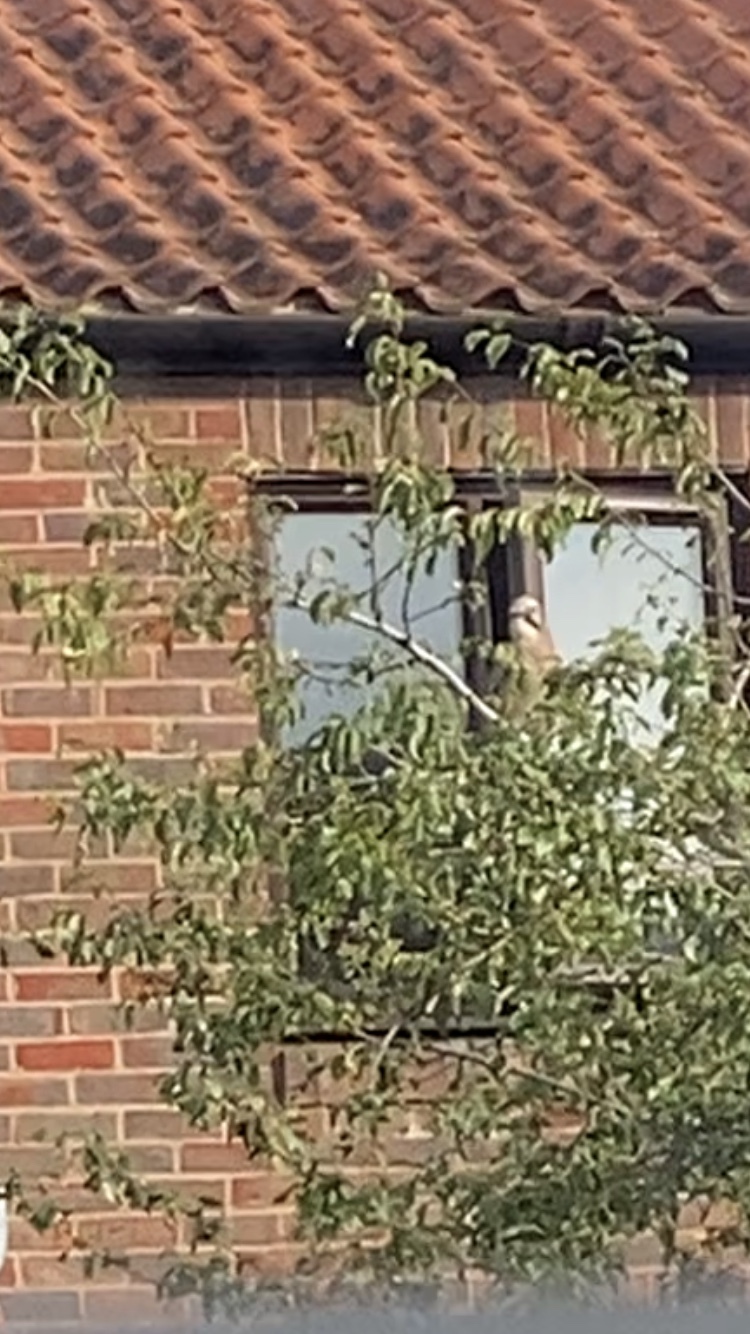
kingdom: Animalia
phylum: Chordata
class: Aves
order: Passeriformes
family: Corvidae
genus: Garrulus
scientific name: Garrulus glandarius
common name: Eurasian jay
